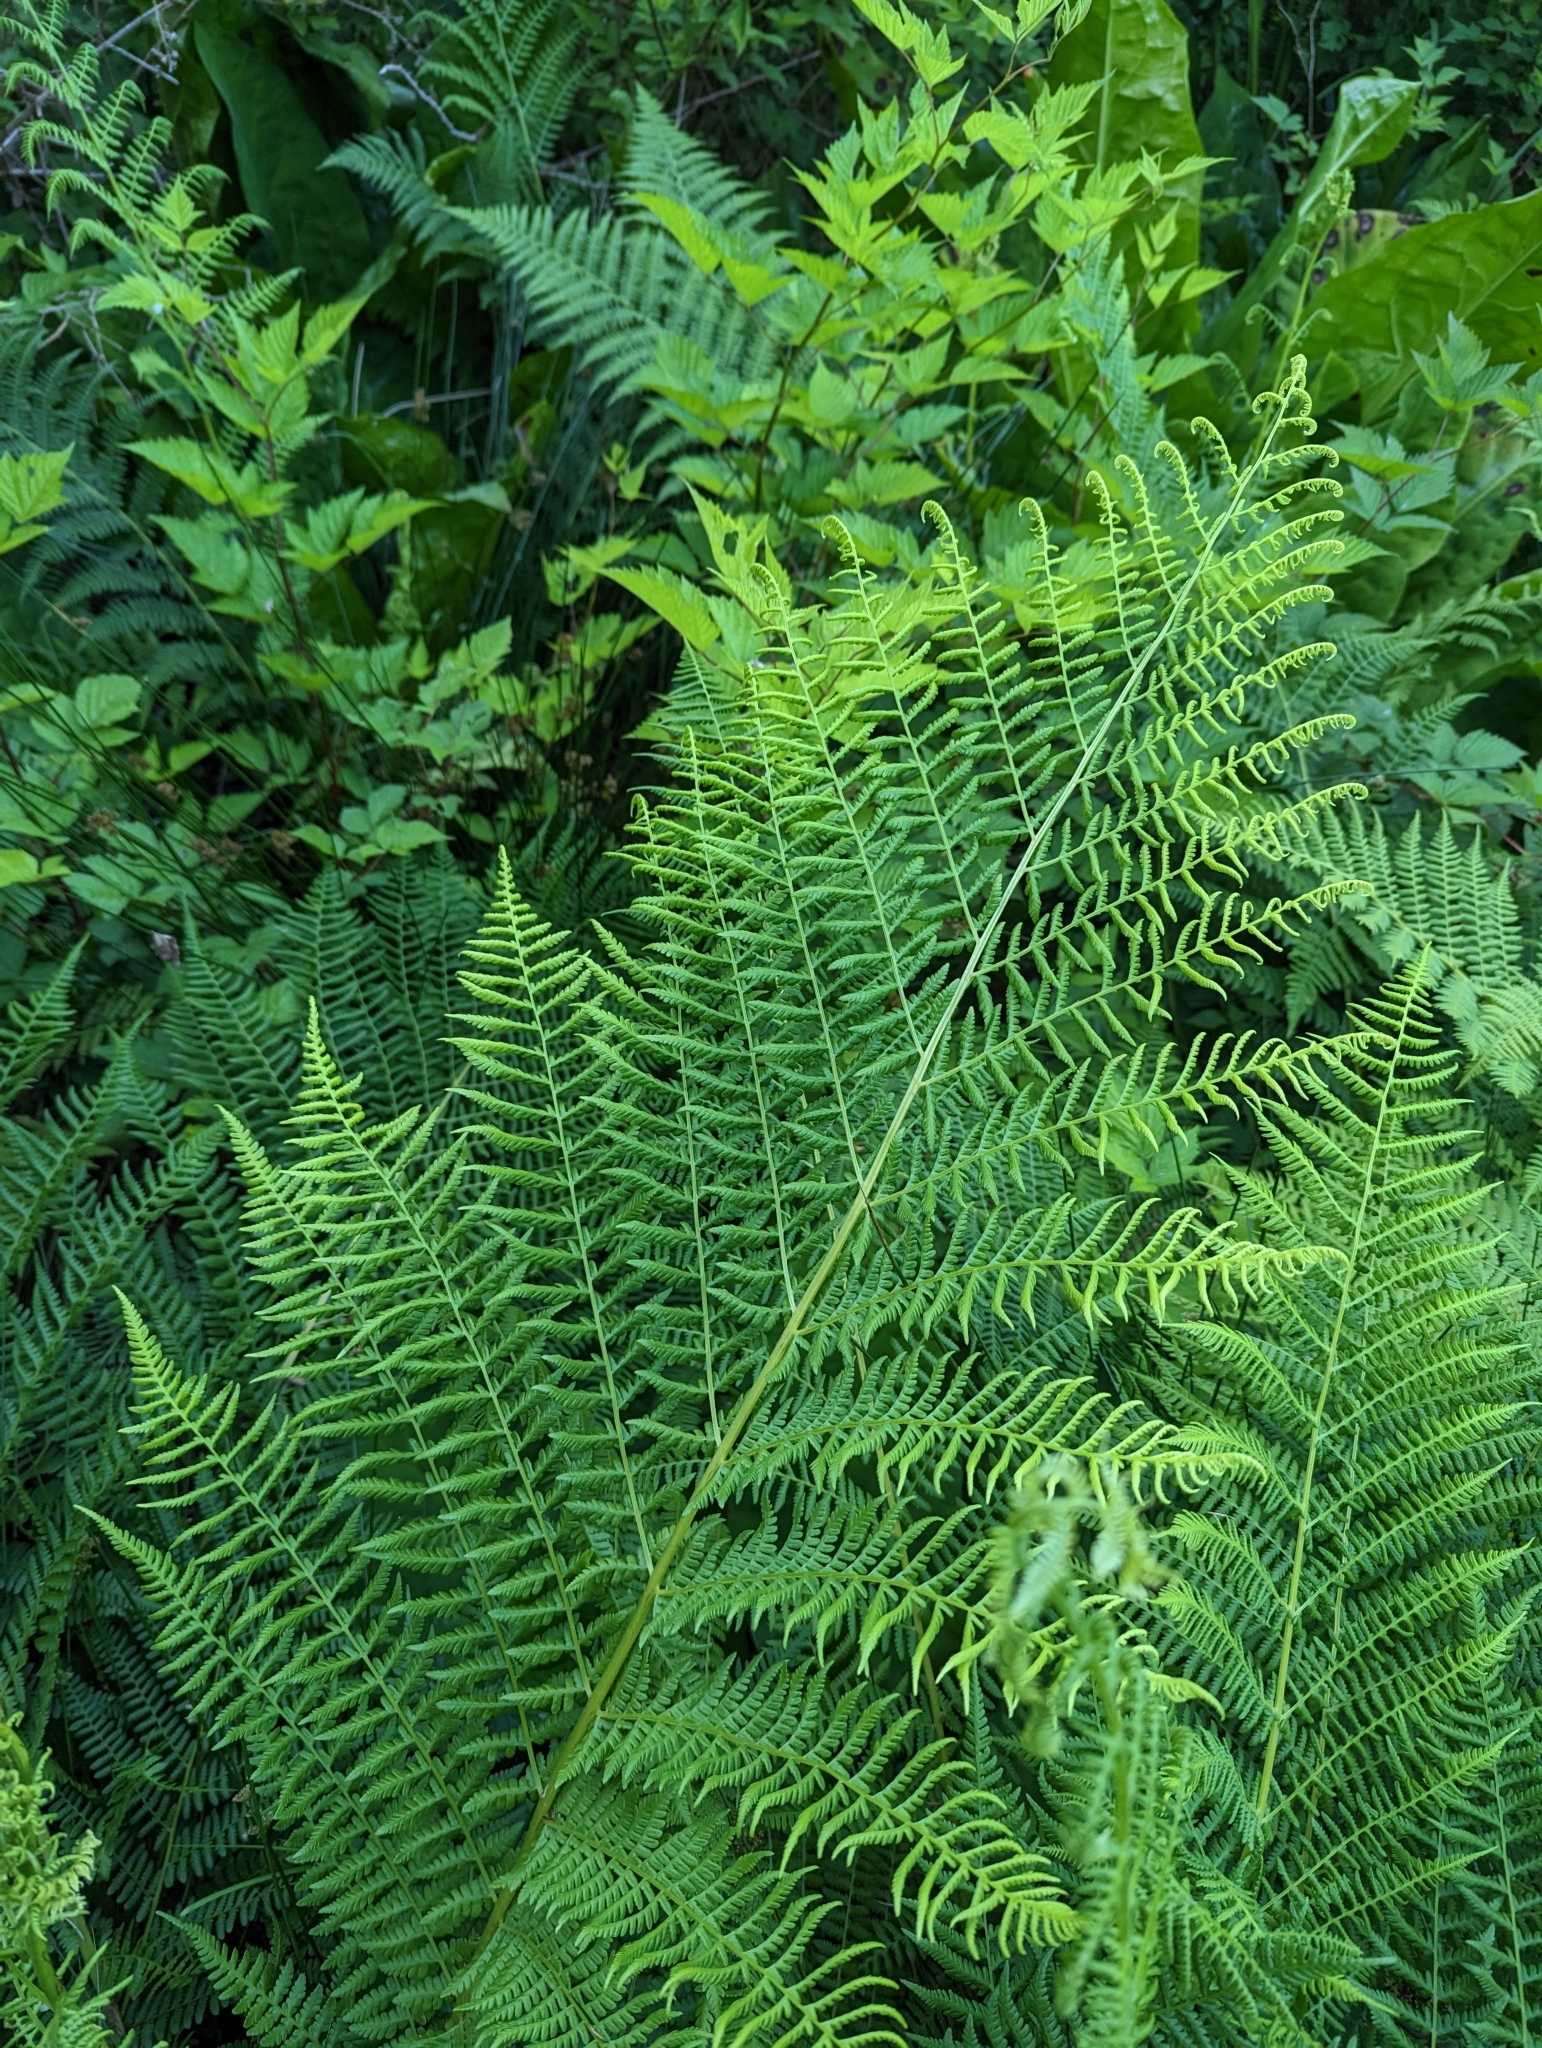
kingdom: Plantae
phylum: Tracheophyta
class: Polypodiopsida
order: Polypodiales
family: Athyriaceae
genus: Athyrium
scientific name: Athyrium filix-femina
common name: Lady fern
